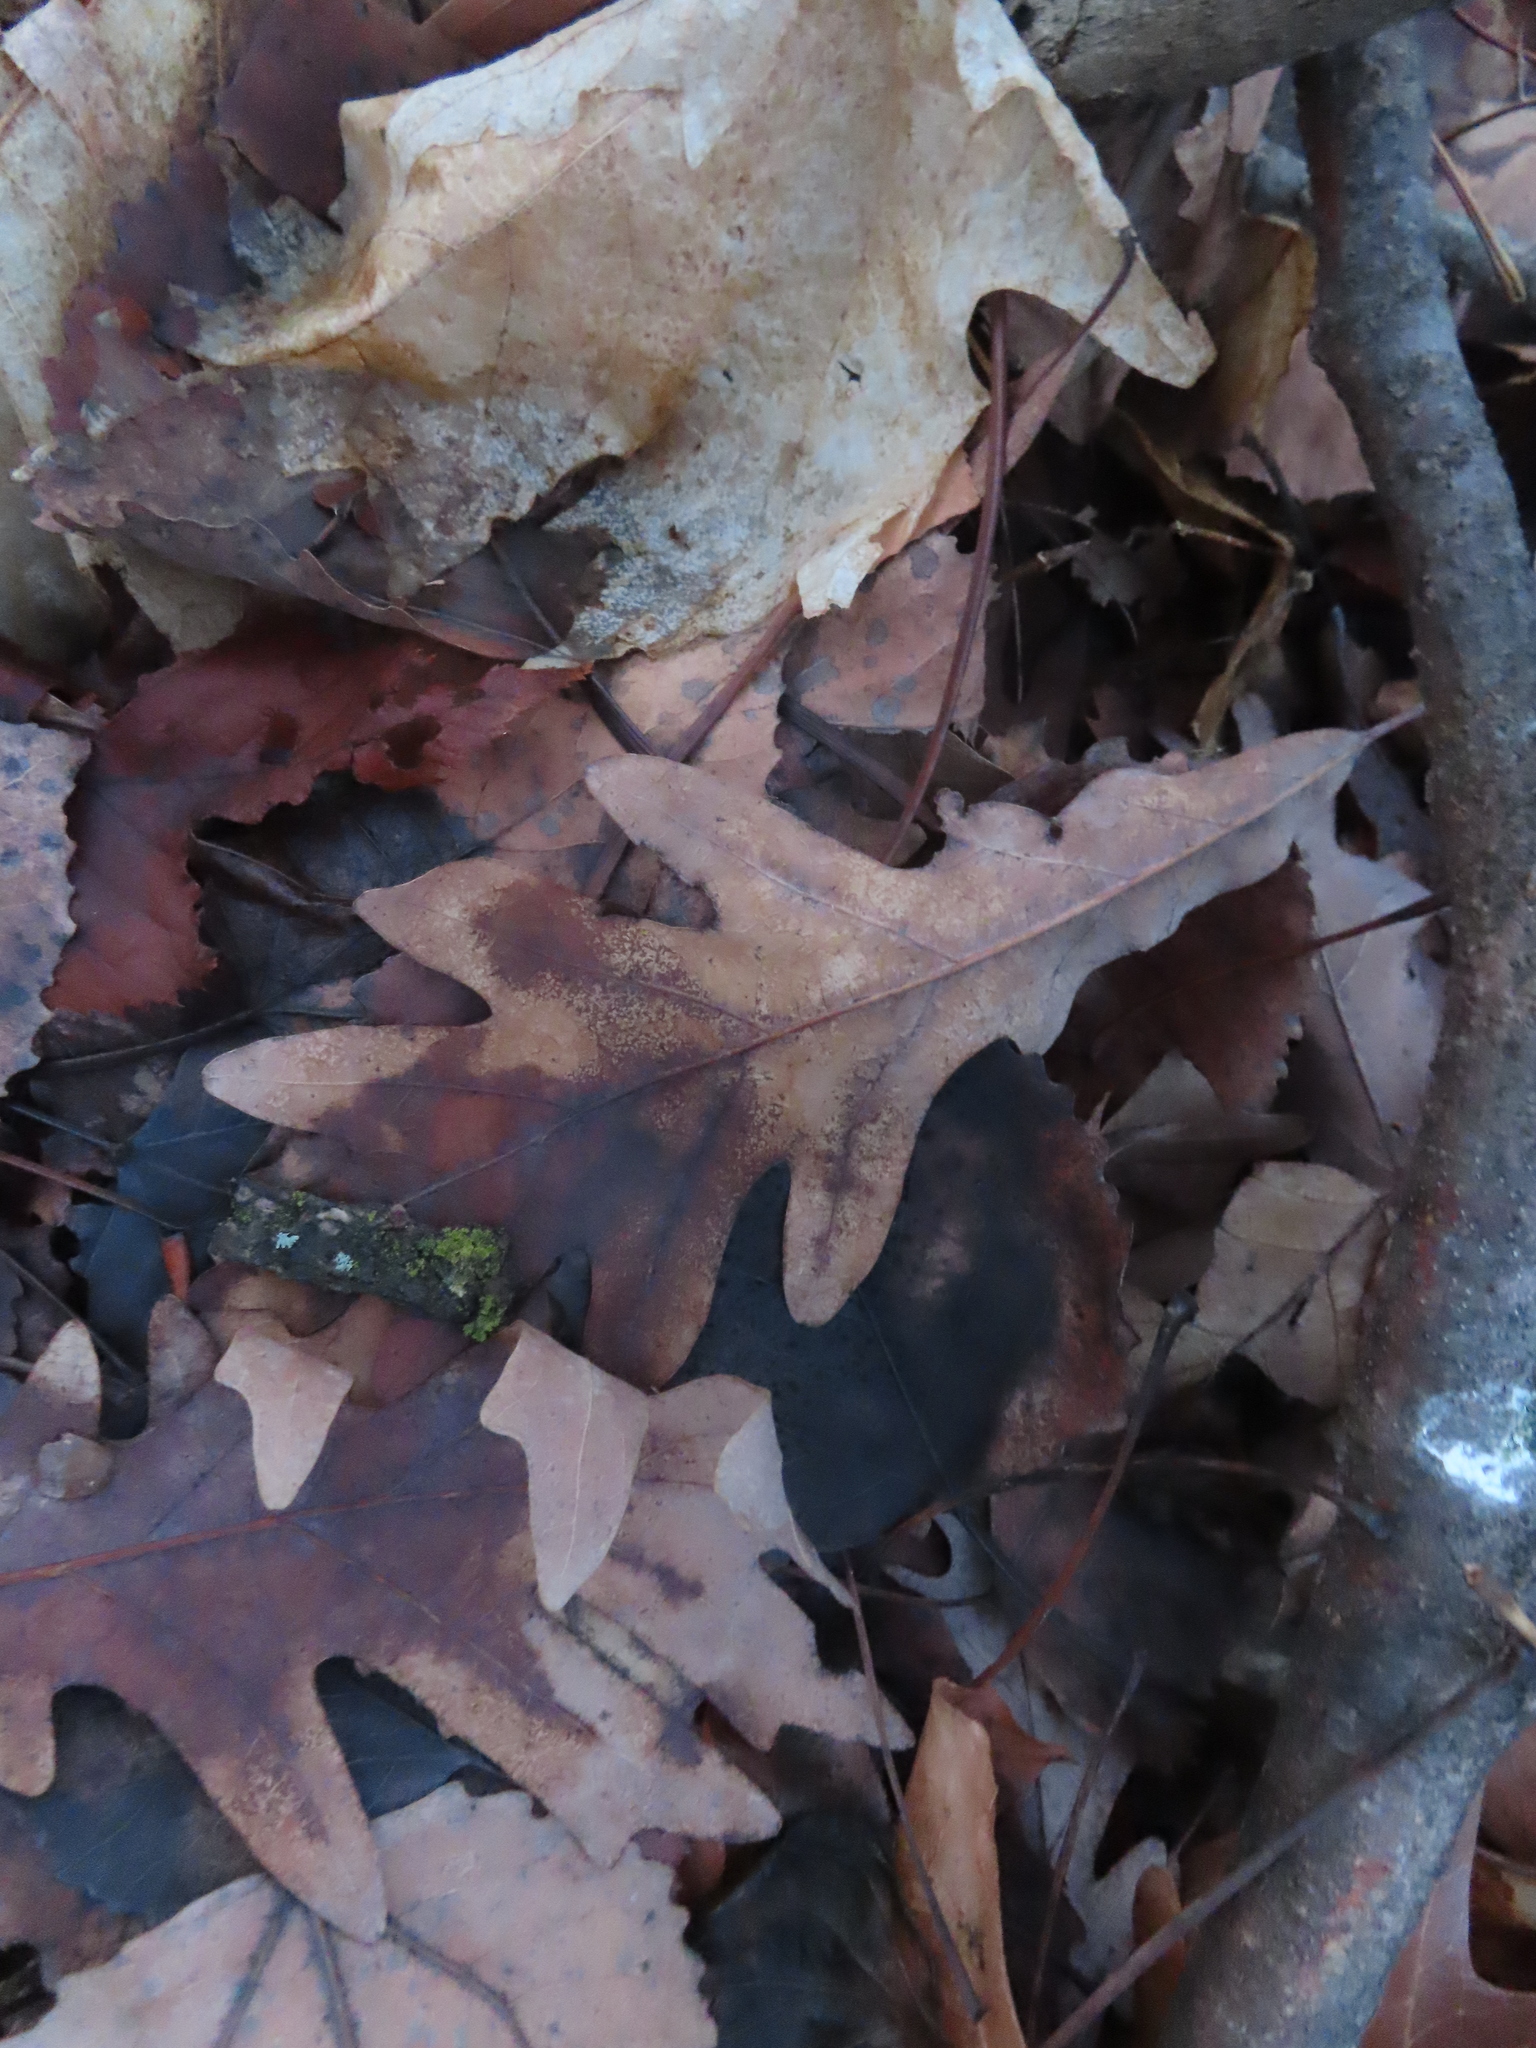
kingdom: Plantae
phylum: Tracheophyta
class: Magnoliopsida
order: Fagales
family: Fagaceae
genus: Quercus
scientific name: Quercus alba
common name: White oak
